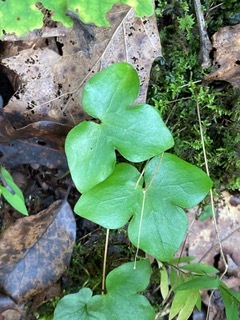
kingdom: Plantae
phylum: Tracheophyta
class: Magnoliopsida
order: Ranunculales
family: Ranunculaceae
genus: Hepatica
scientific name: Hepatica acutiloba
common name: Sharp-lobed hepatica
